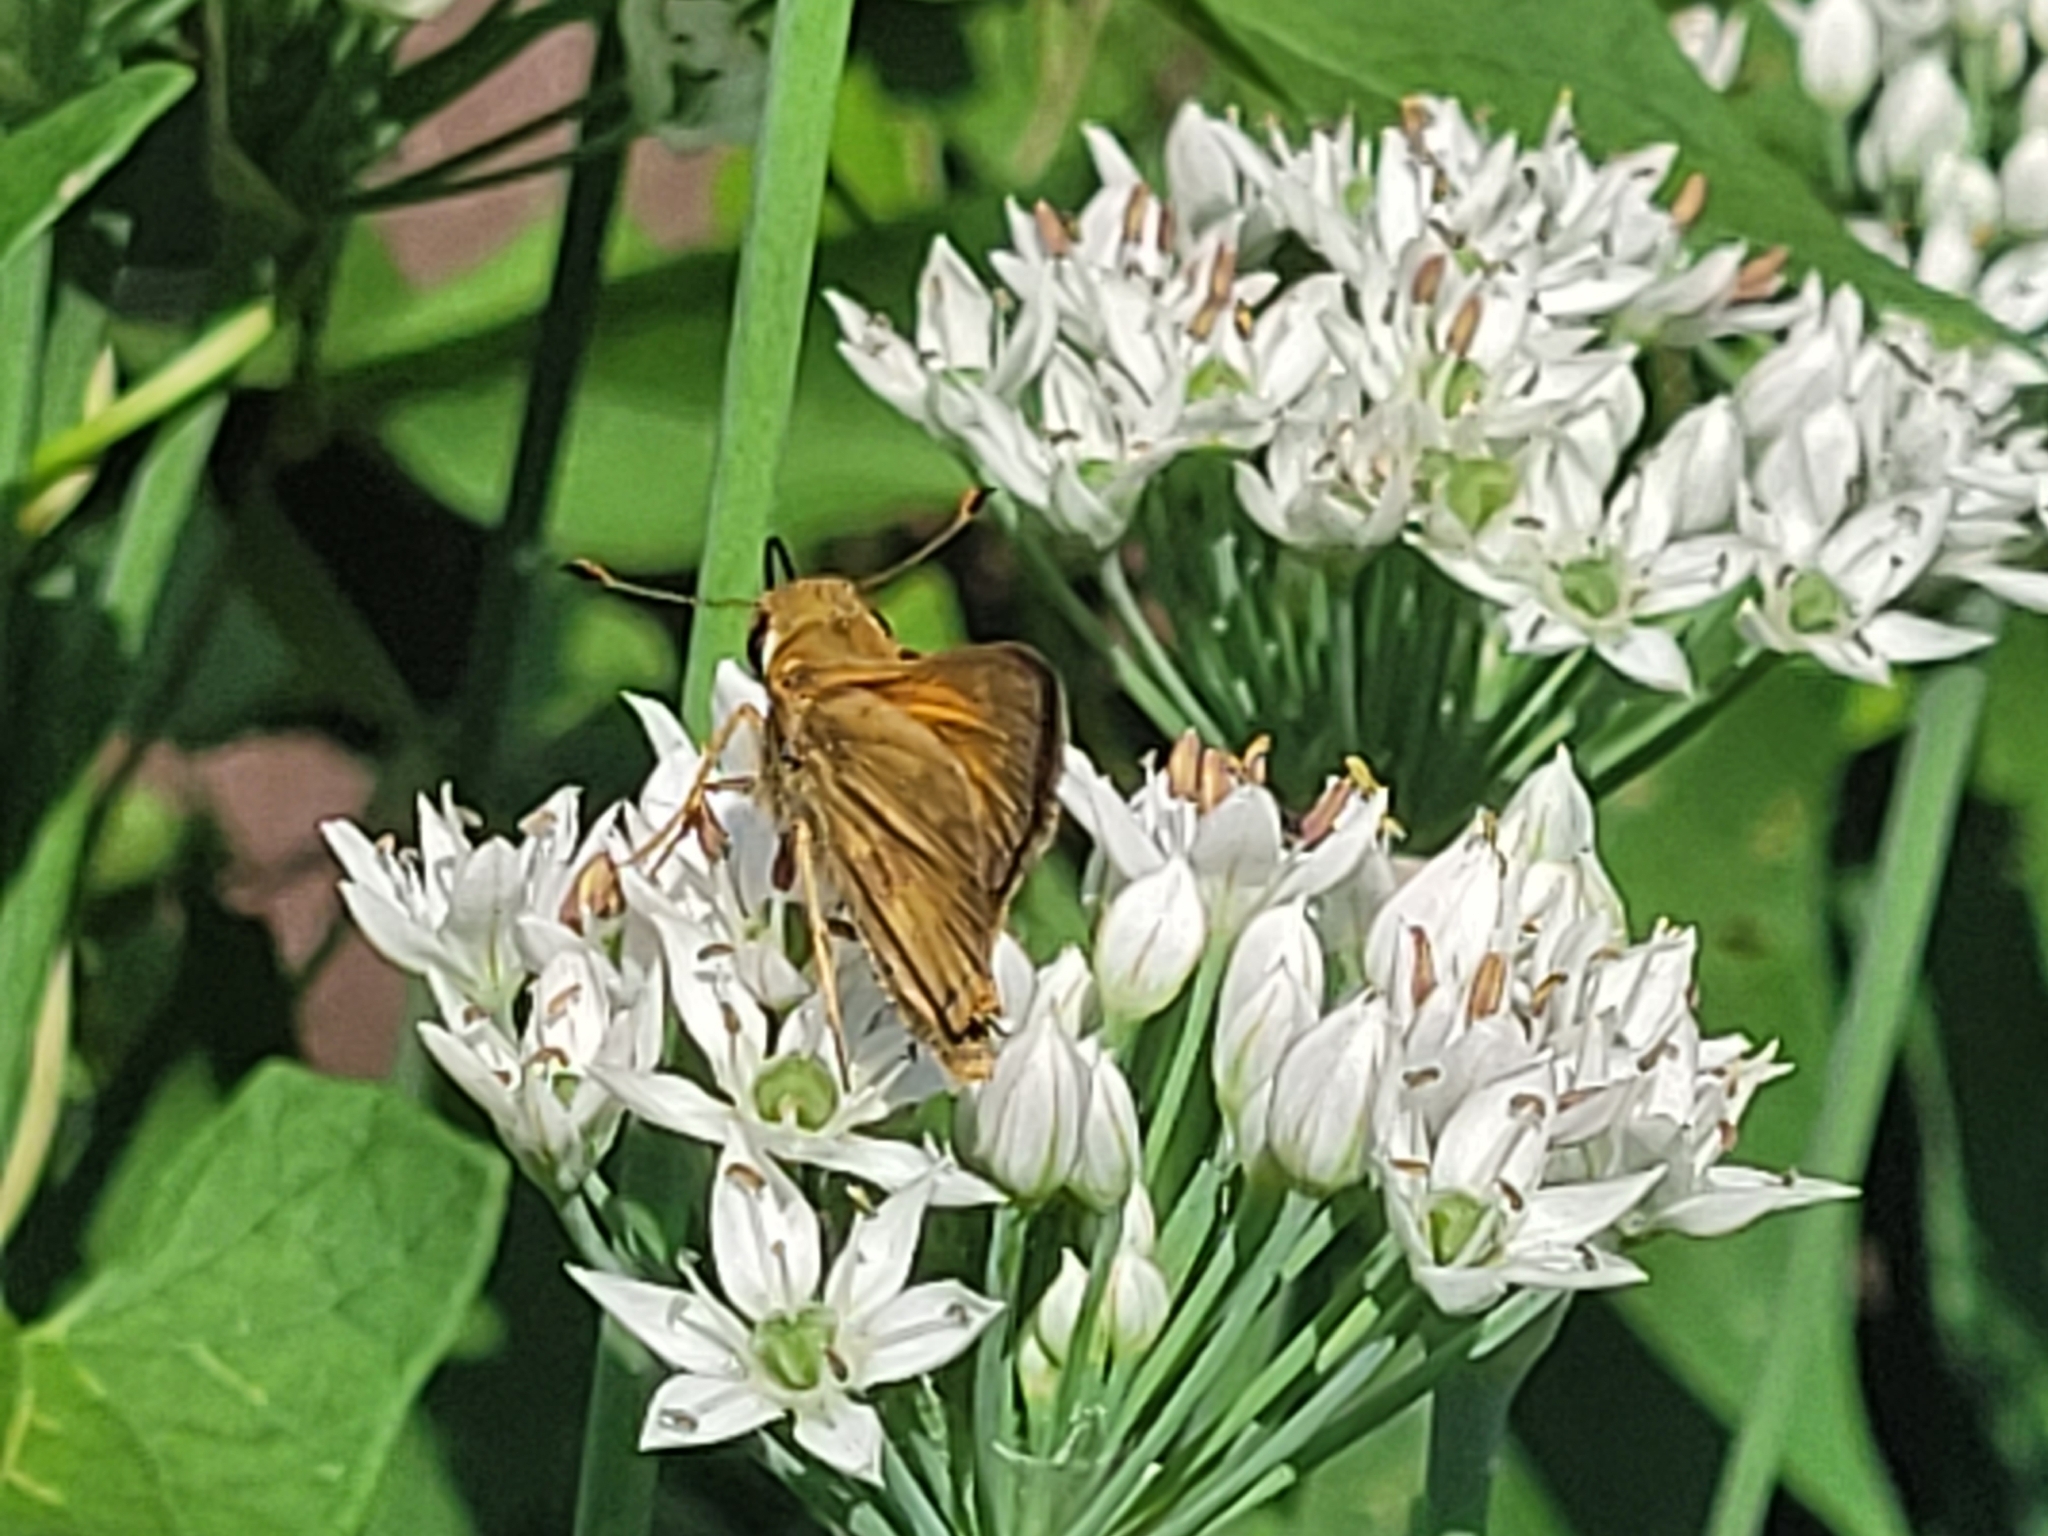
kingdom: Animalia
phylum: Arthropoda
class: Insecta
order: Lepidoptera
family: Hesperiidae
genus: Atalopedes
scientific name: Atalopedes
